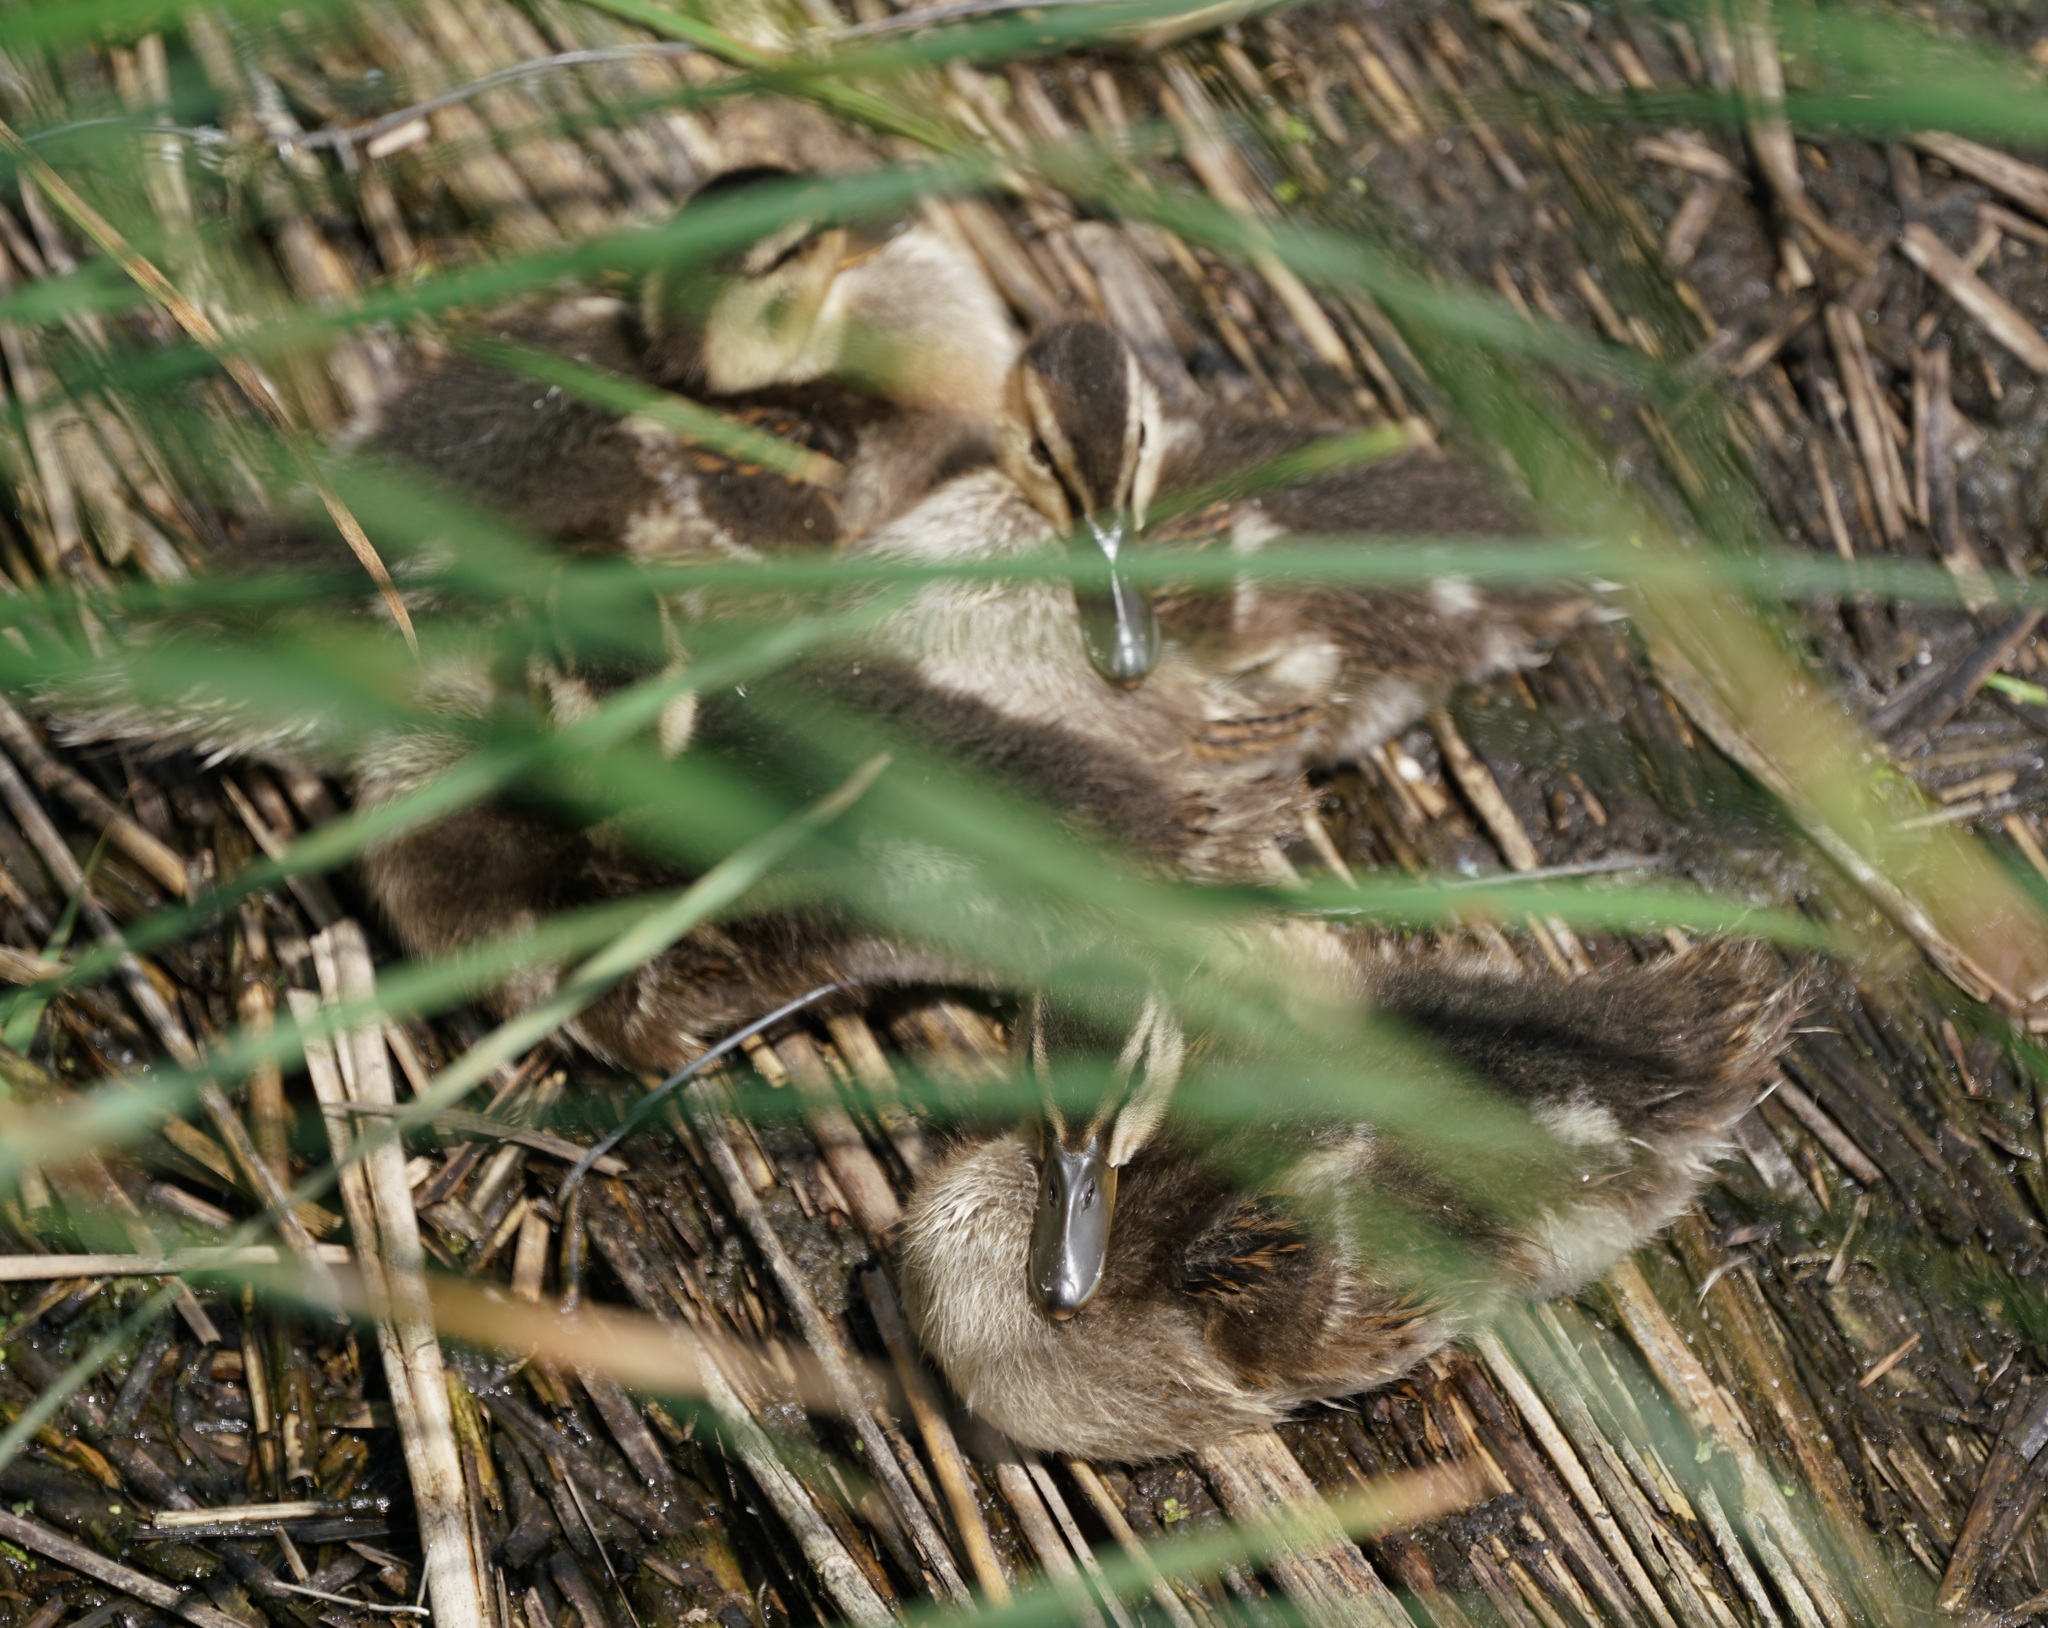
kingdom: Animalia
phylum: Chordata
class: Aves
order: Anseriformes
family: Anatidae
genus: Anas
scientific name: Anas platyrhynchos
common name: Mallard
